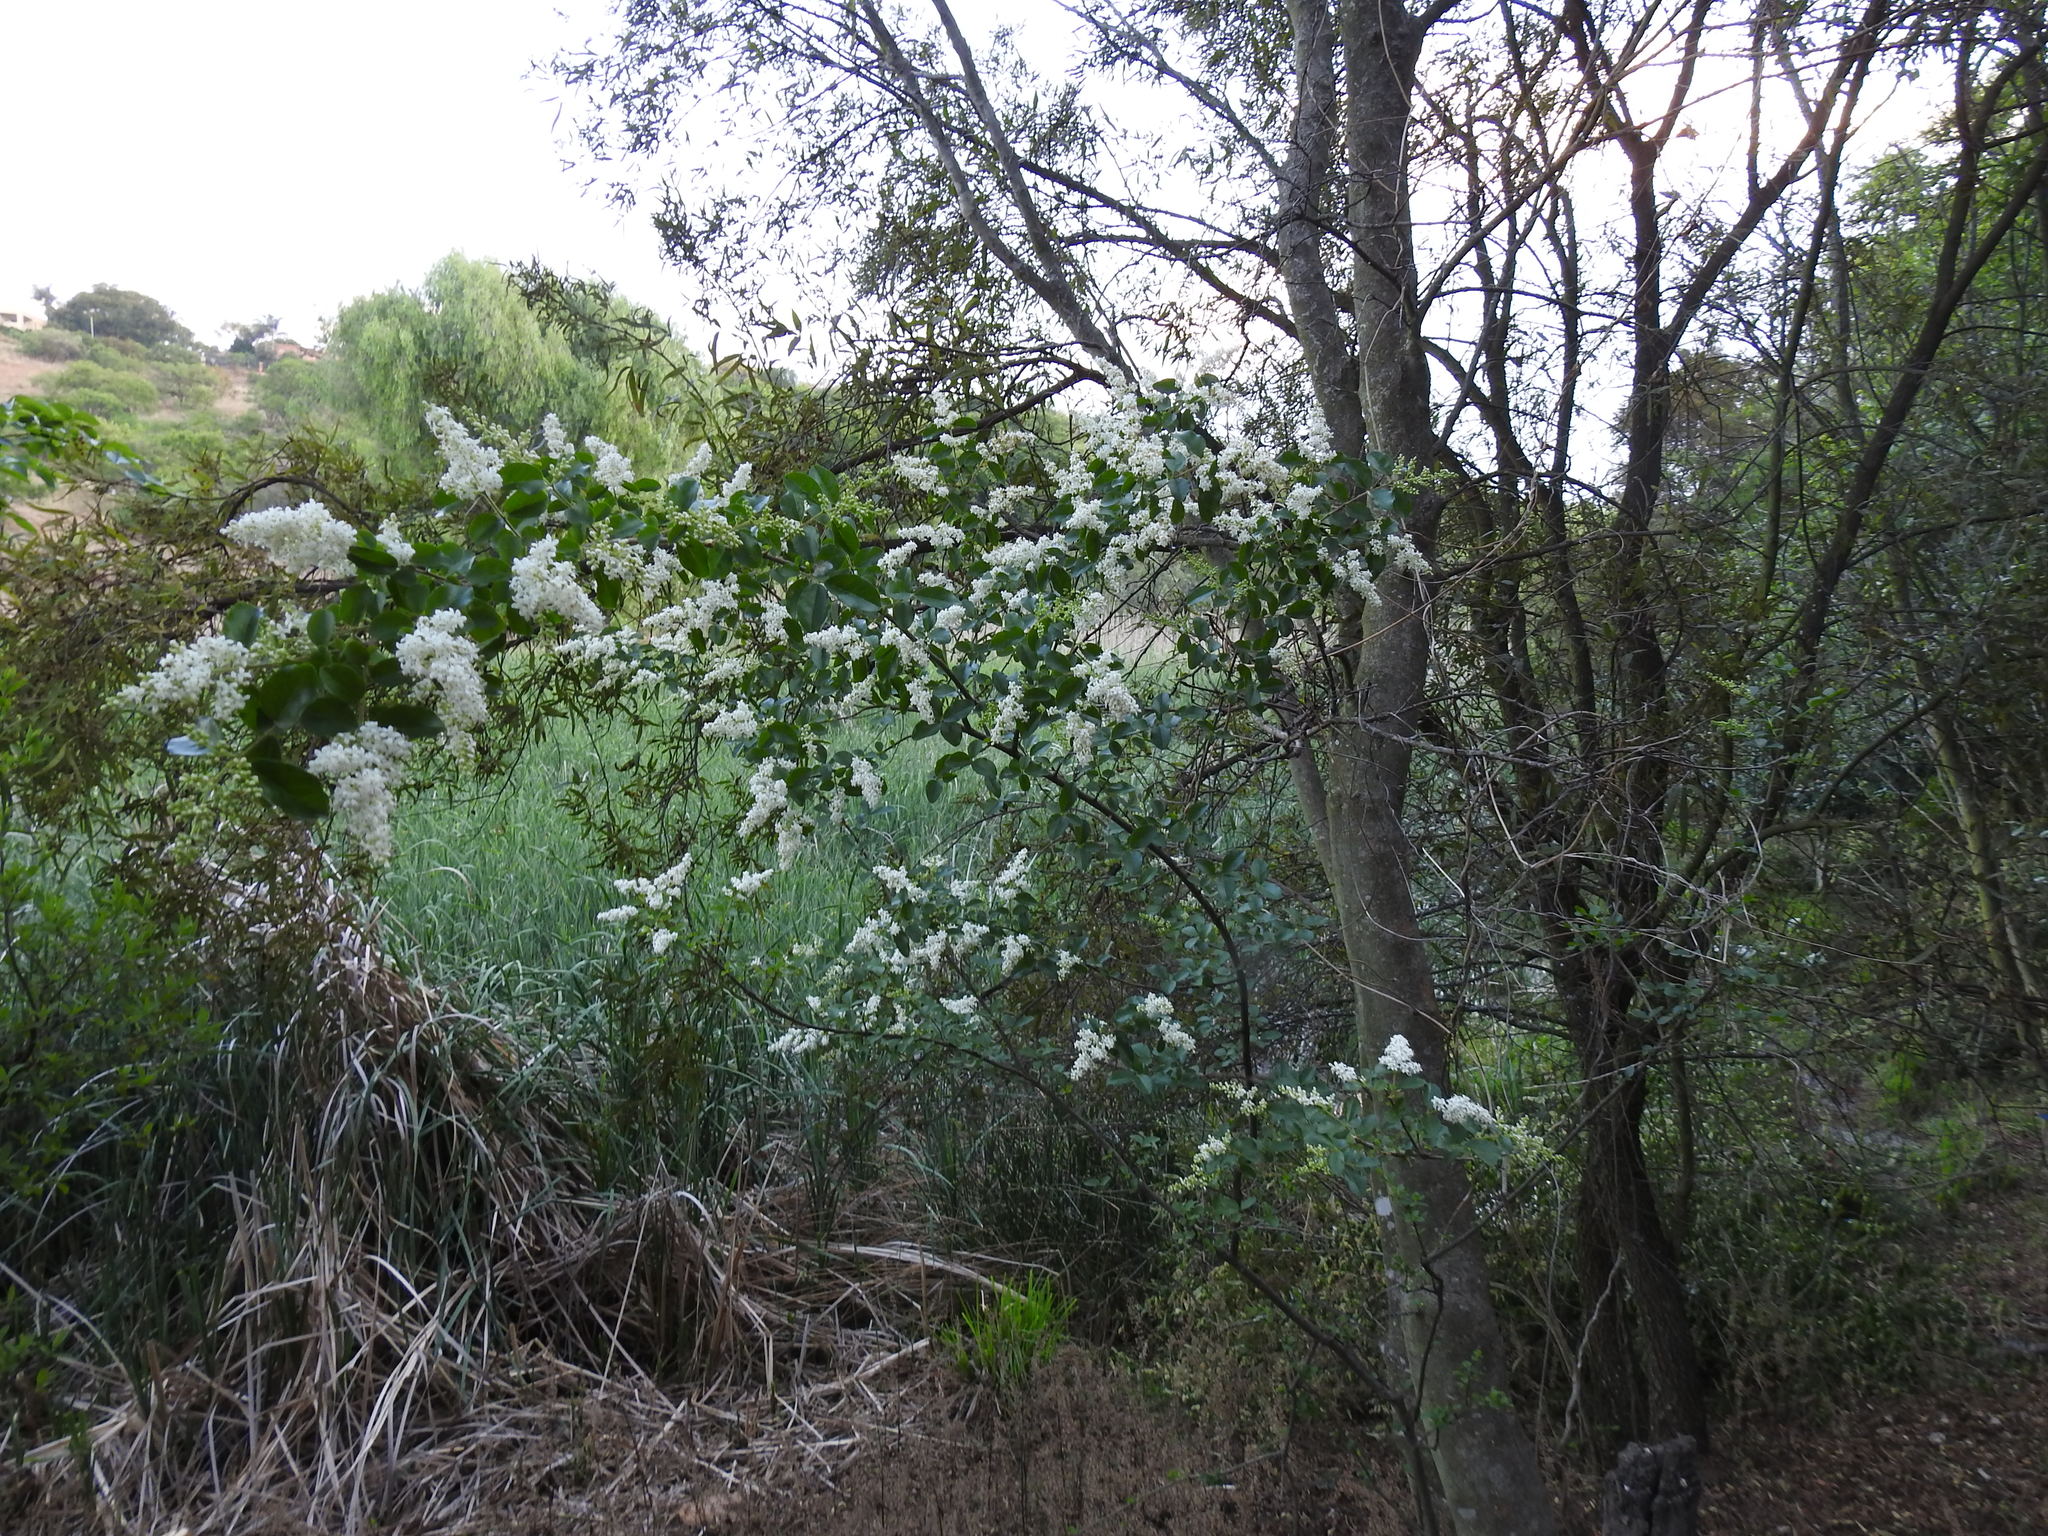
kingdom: Plantae
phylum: Tracheophyta
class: Magnoliopsida
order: Lamiales
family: Oleaceae
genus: Ligustrum
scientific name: Ligustrum sinense
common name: Chinese privet
